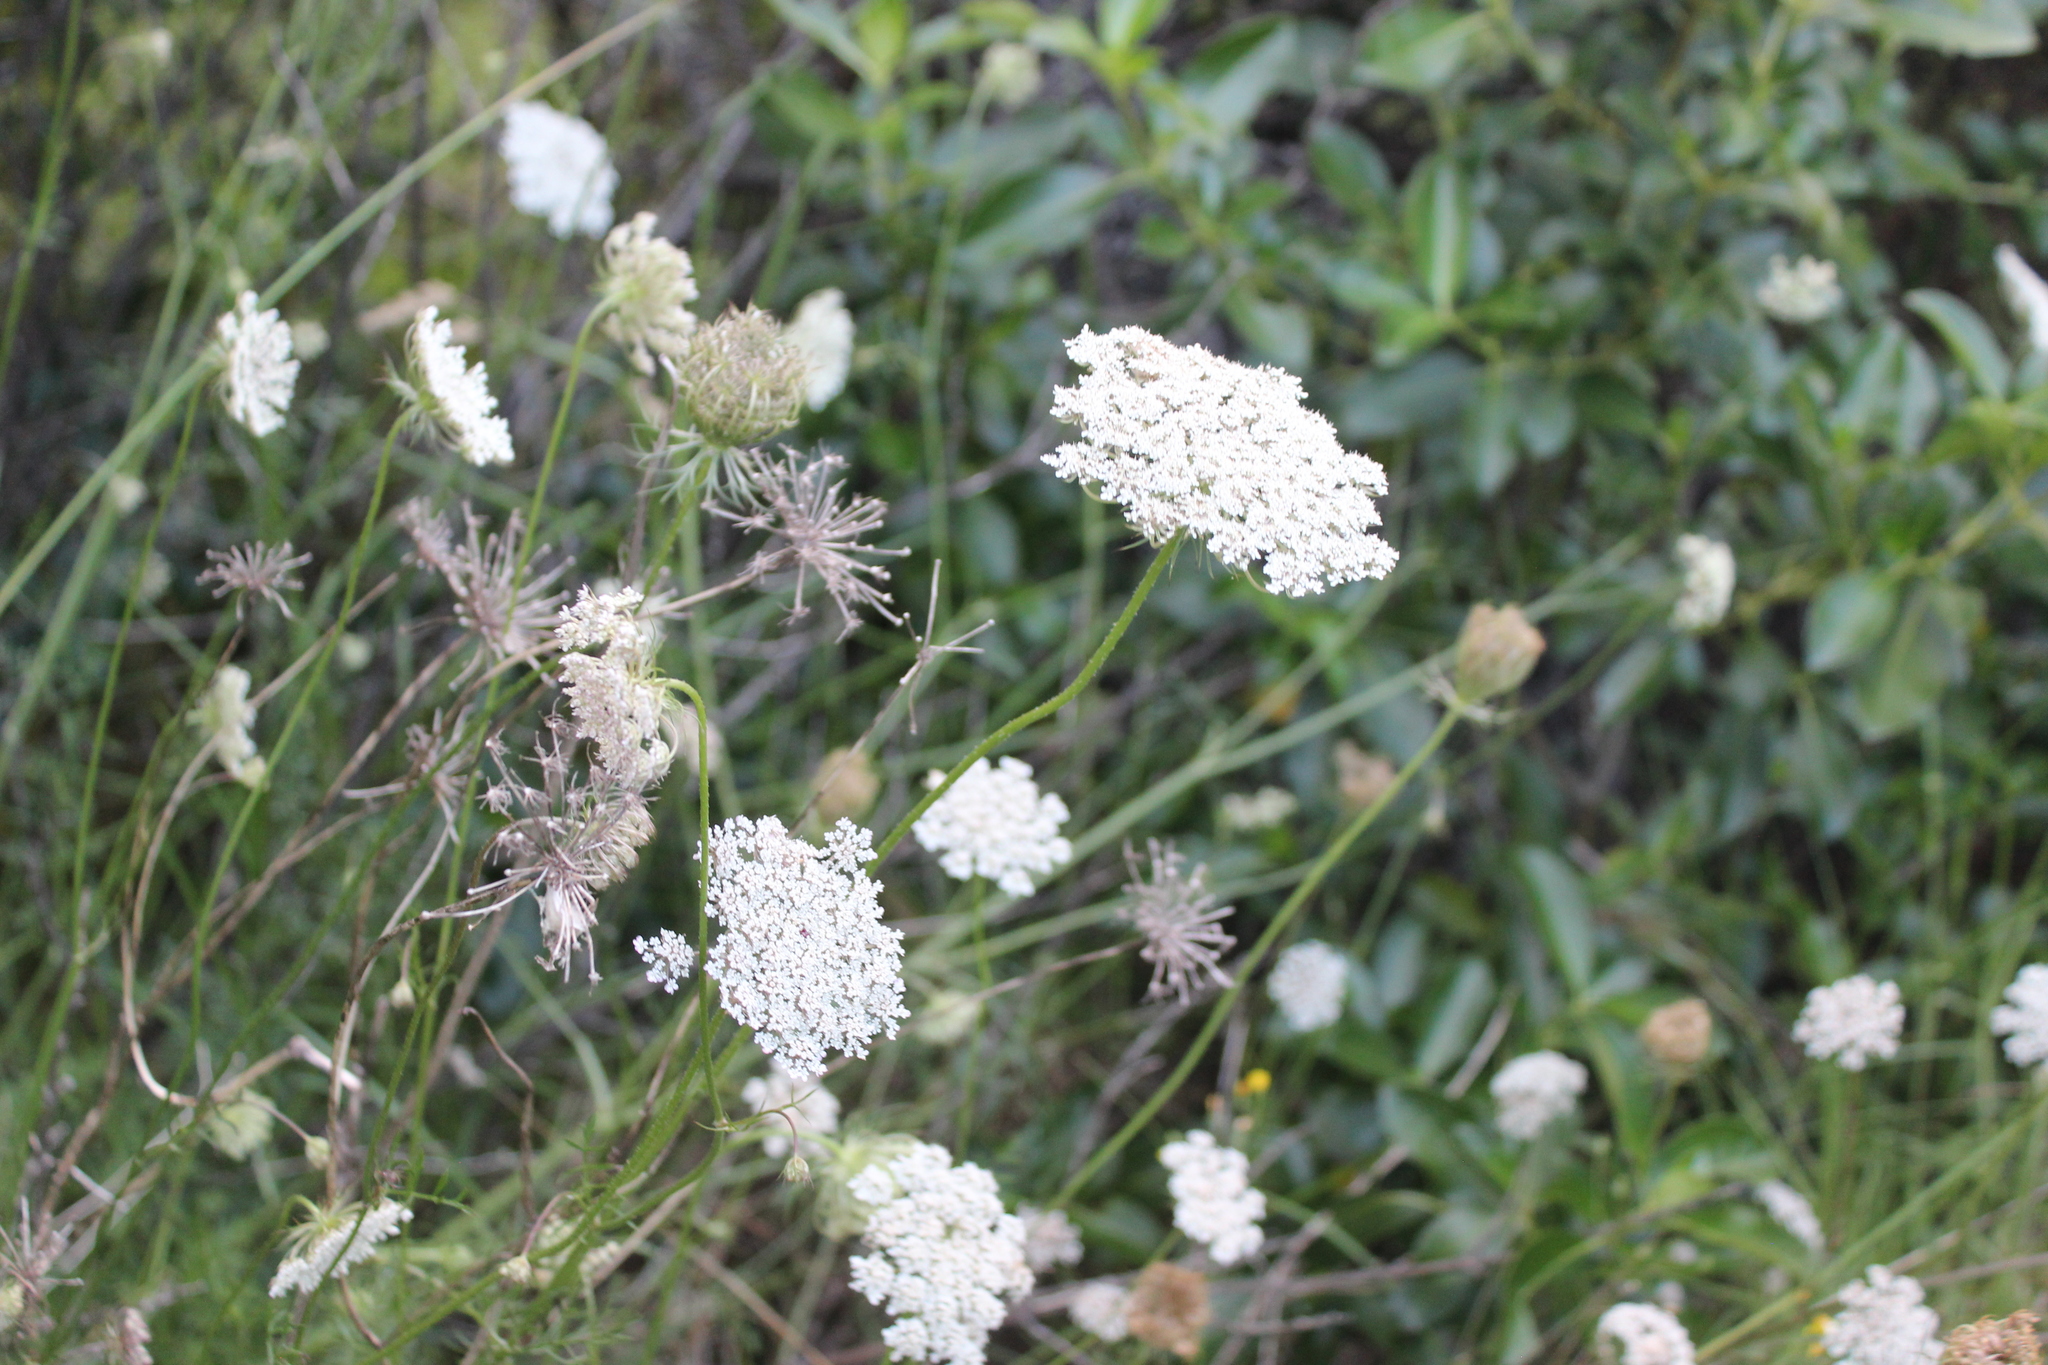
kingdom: Plantae
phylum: Tracheophyta
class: Magnoliopsida
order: Apiales
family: Apiaceae
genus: Daucus
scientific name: Daucus carota
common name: Wild carrot
